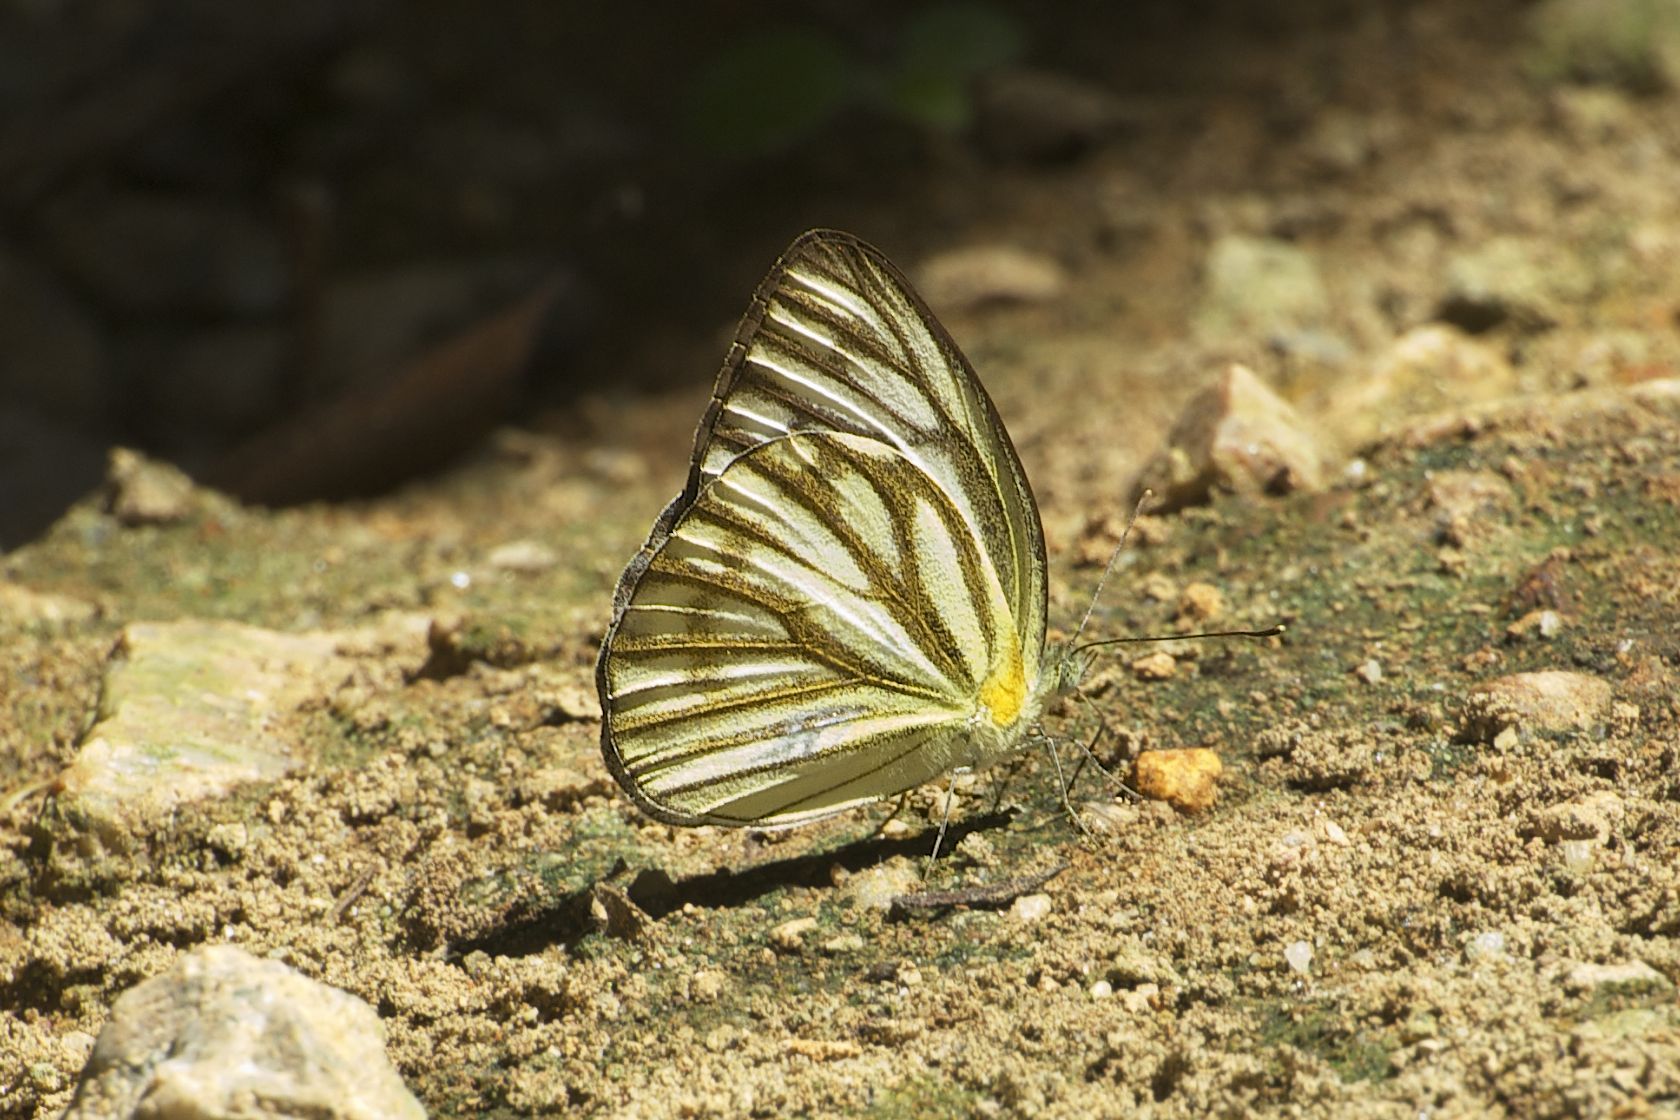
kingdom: Animalia
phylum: Arthropoda
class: Insecta
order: Lepidoptera
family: Pieridae
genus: Cepora
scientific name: Cepora nerissa
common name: Common gull
